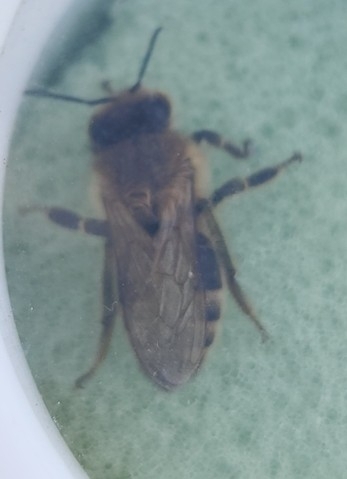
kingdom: Animalia
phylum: Arthropoda
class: Insecta
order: Hymenoptera
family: Apidae
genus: Apis
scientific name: Apis mellifera
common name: Honey bee
